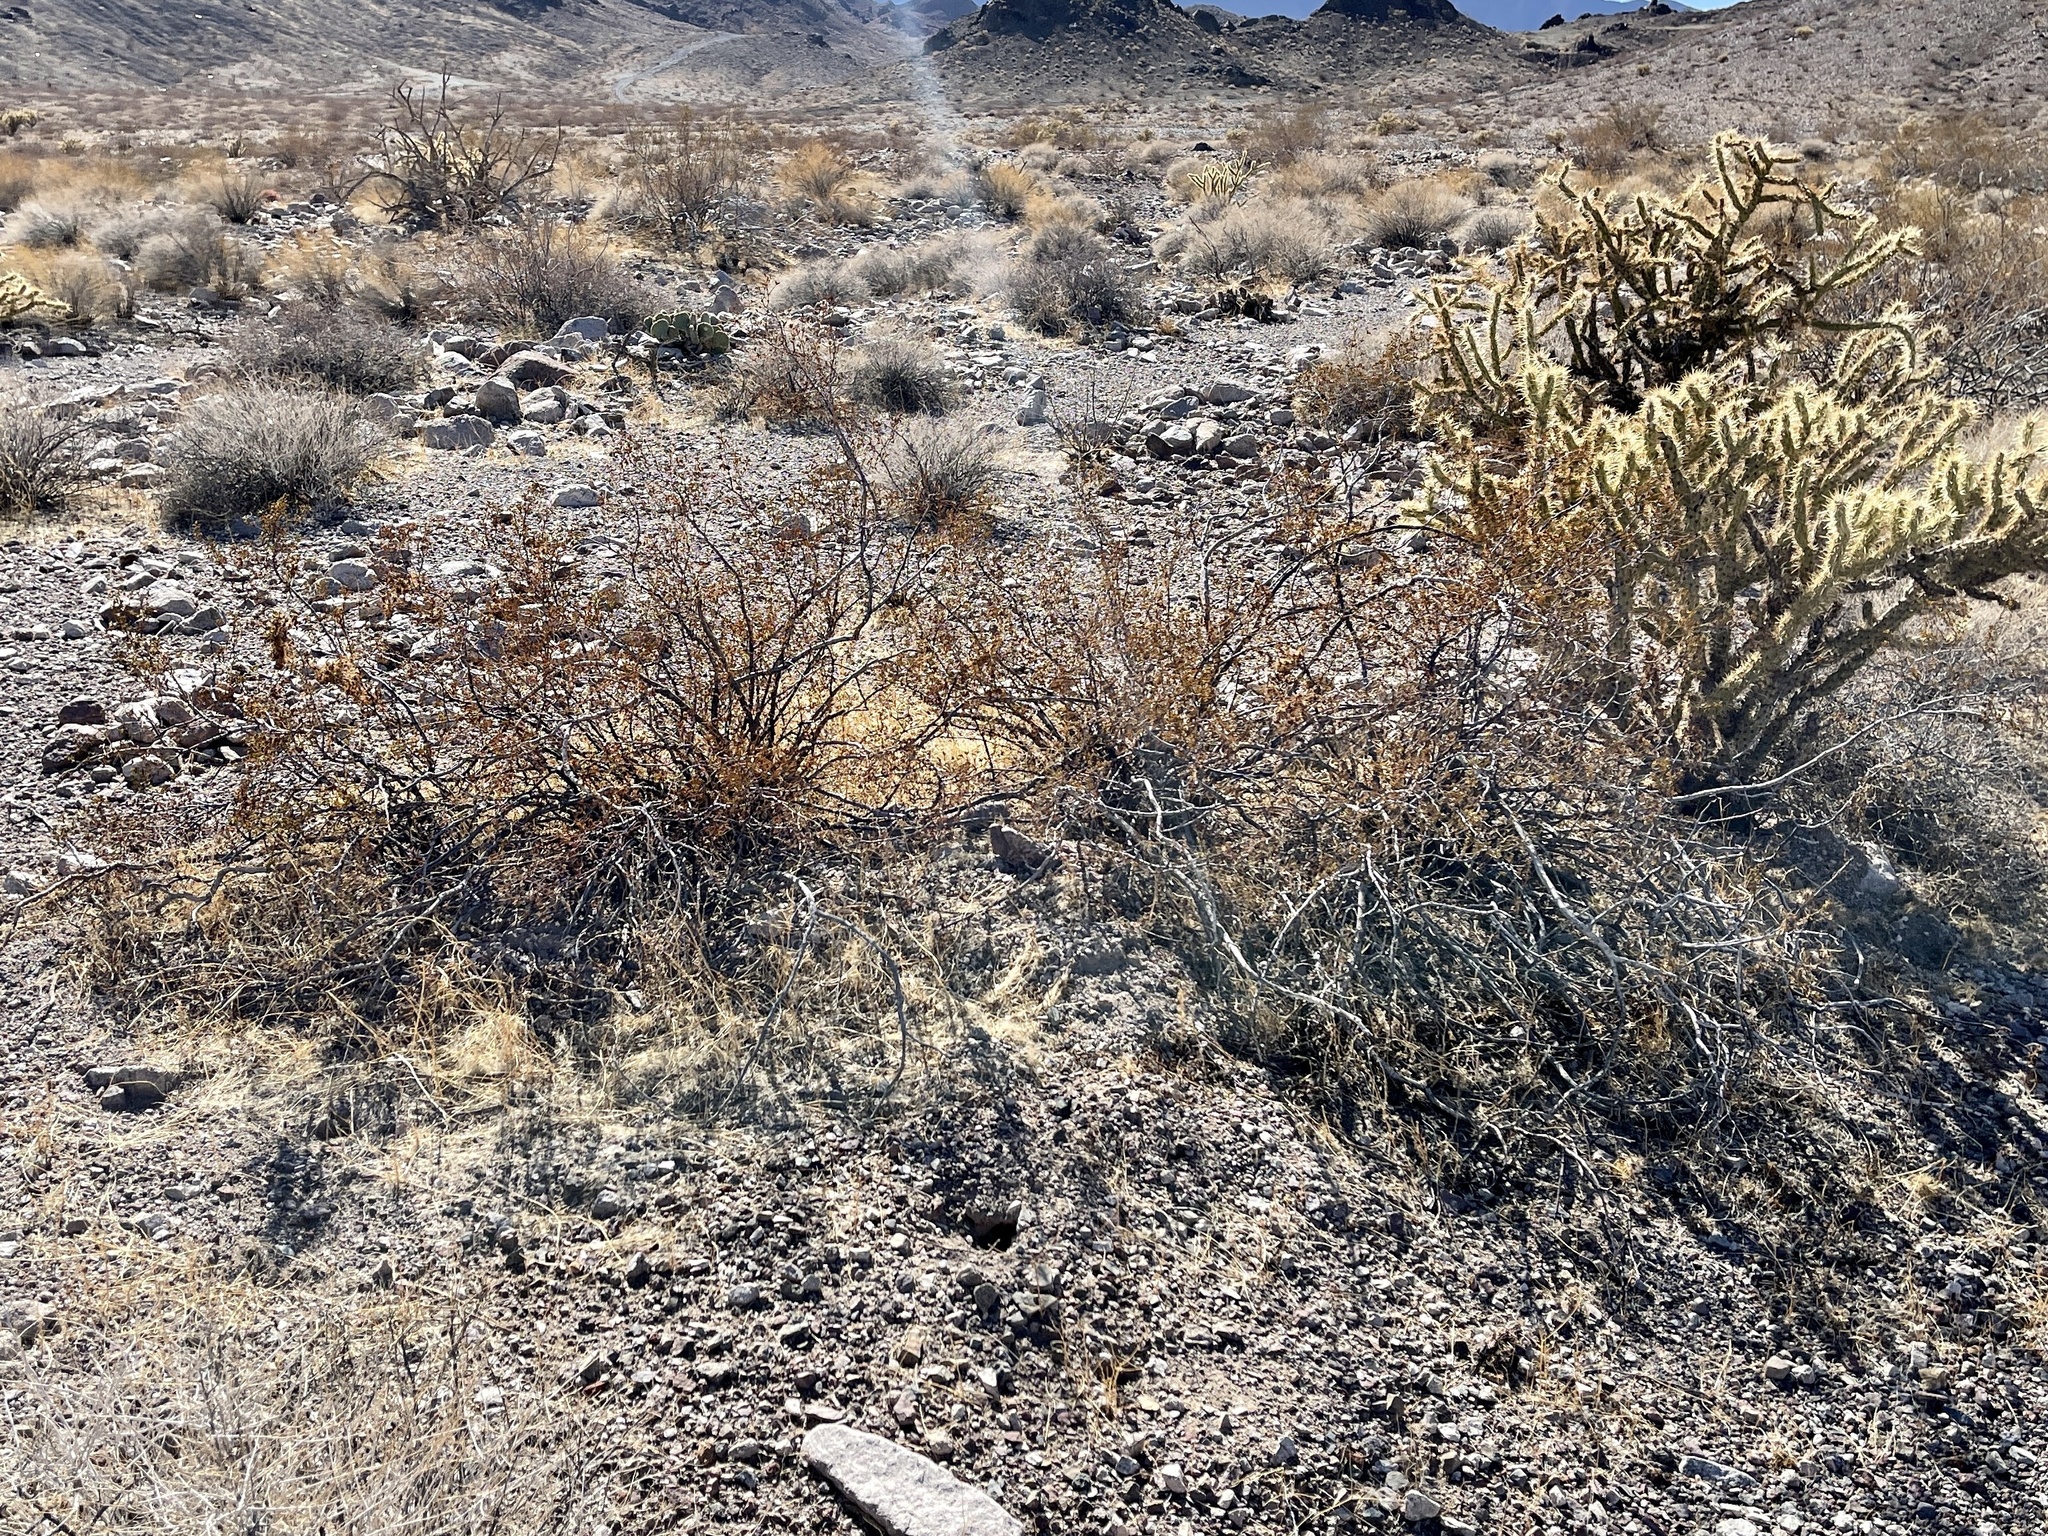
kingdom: Plantae
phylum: Tracheophyta
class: Magnoliopsida
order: Zygophyllales
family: Zygophyllaceae
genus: Larrea
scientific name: Larrea tridentata
